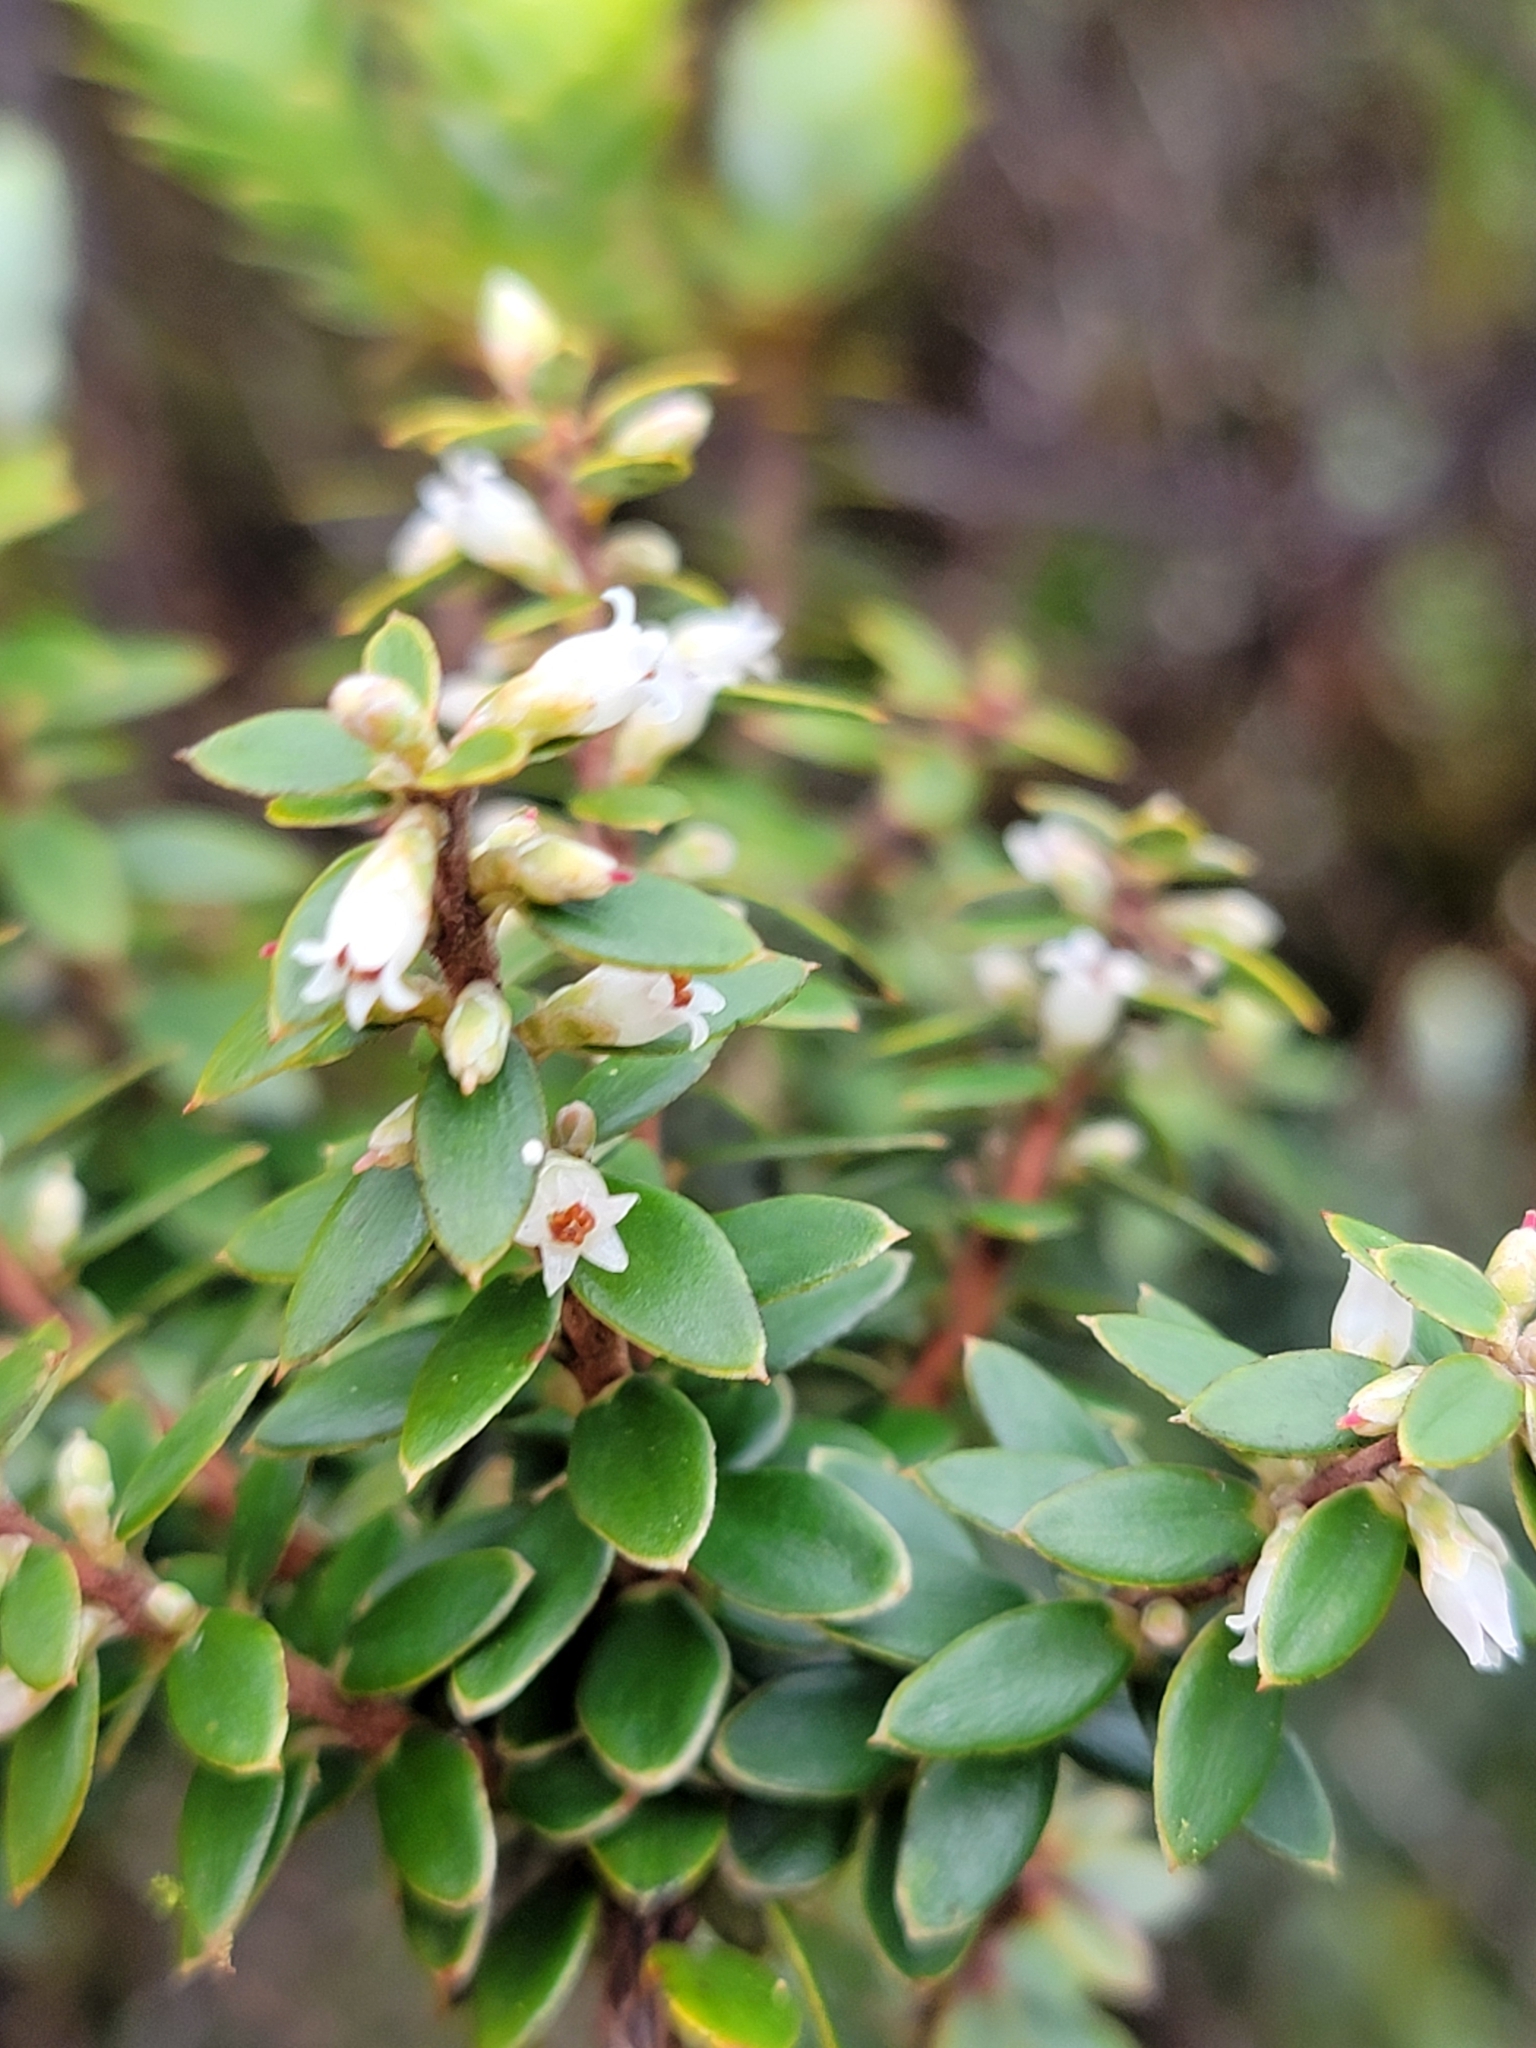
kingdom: Plantae
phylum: Tracheophyta
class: Magnoliopsida
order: Ericales
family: Ericaceae
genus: Leptecophylla
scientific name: Leptecophylla tameiameiae
